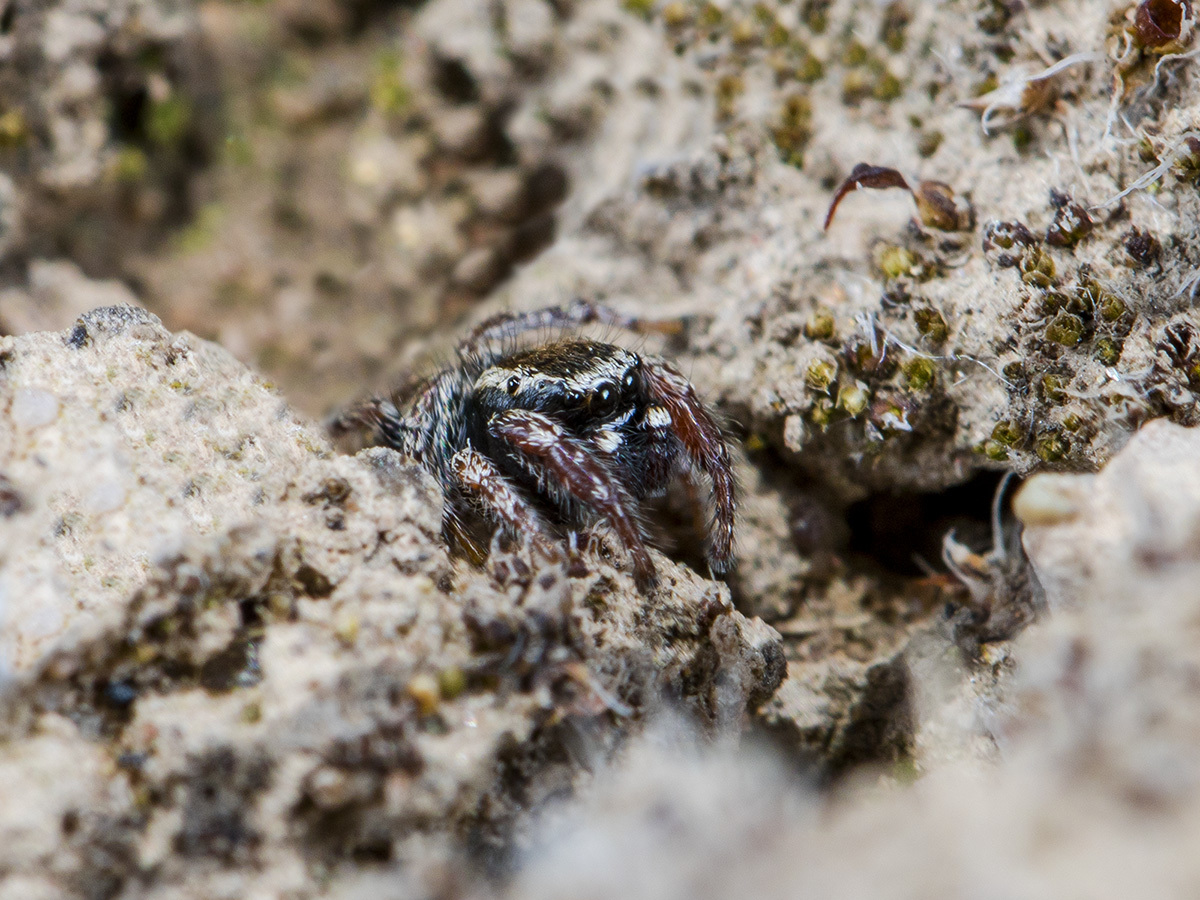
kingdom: Animalia
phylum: Arthropoda
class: Arachnida
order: Araneae
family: Salticidae
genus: Pellenes
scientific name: Pellenes epularis
